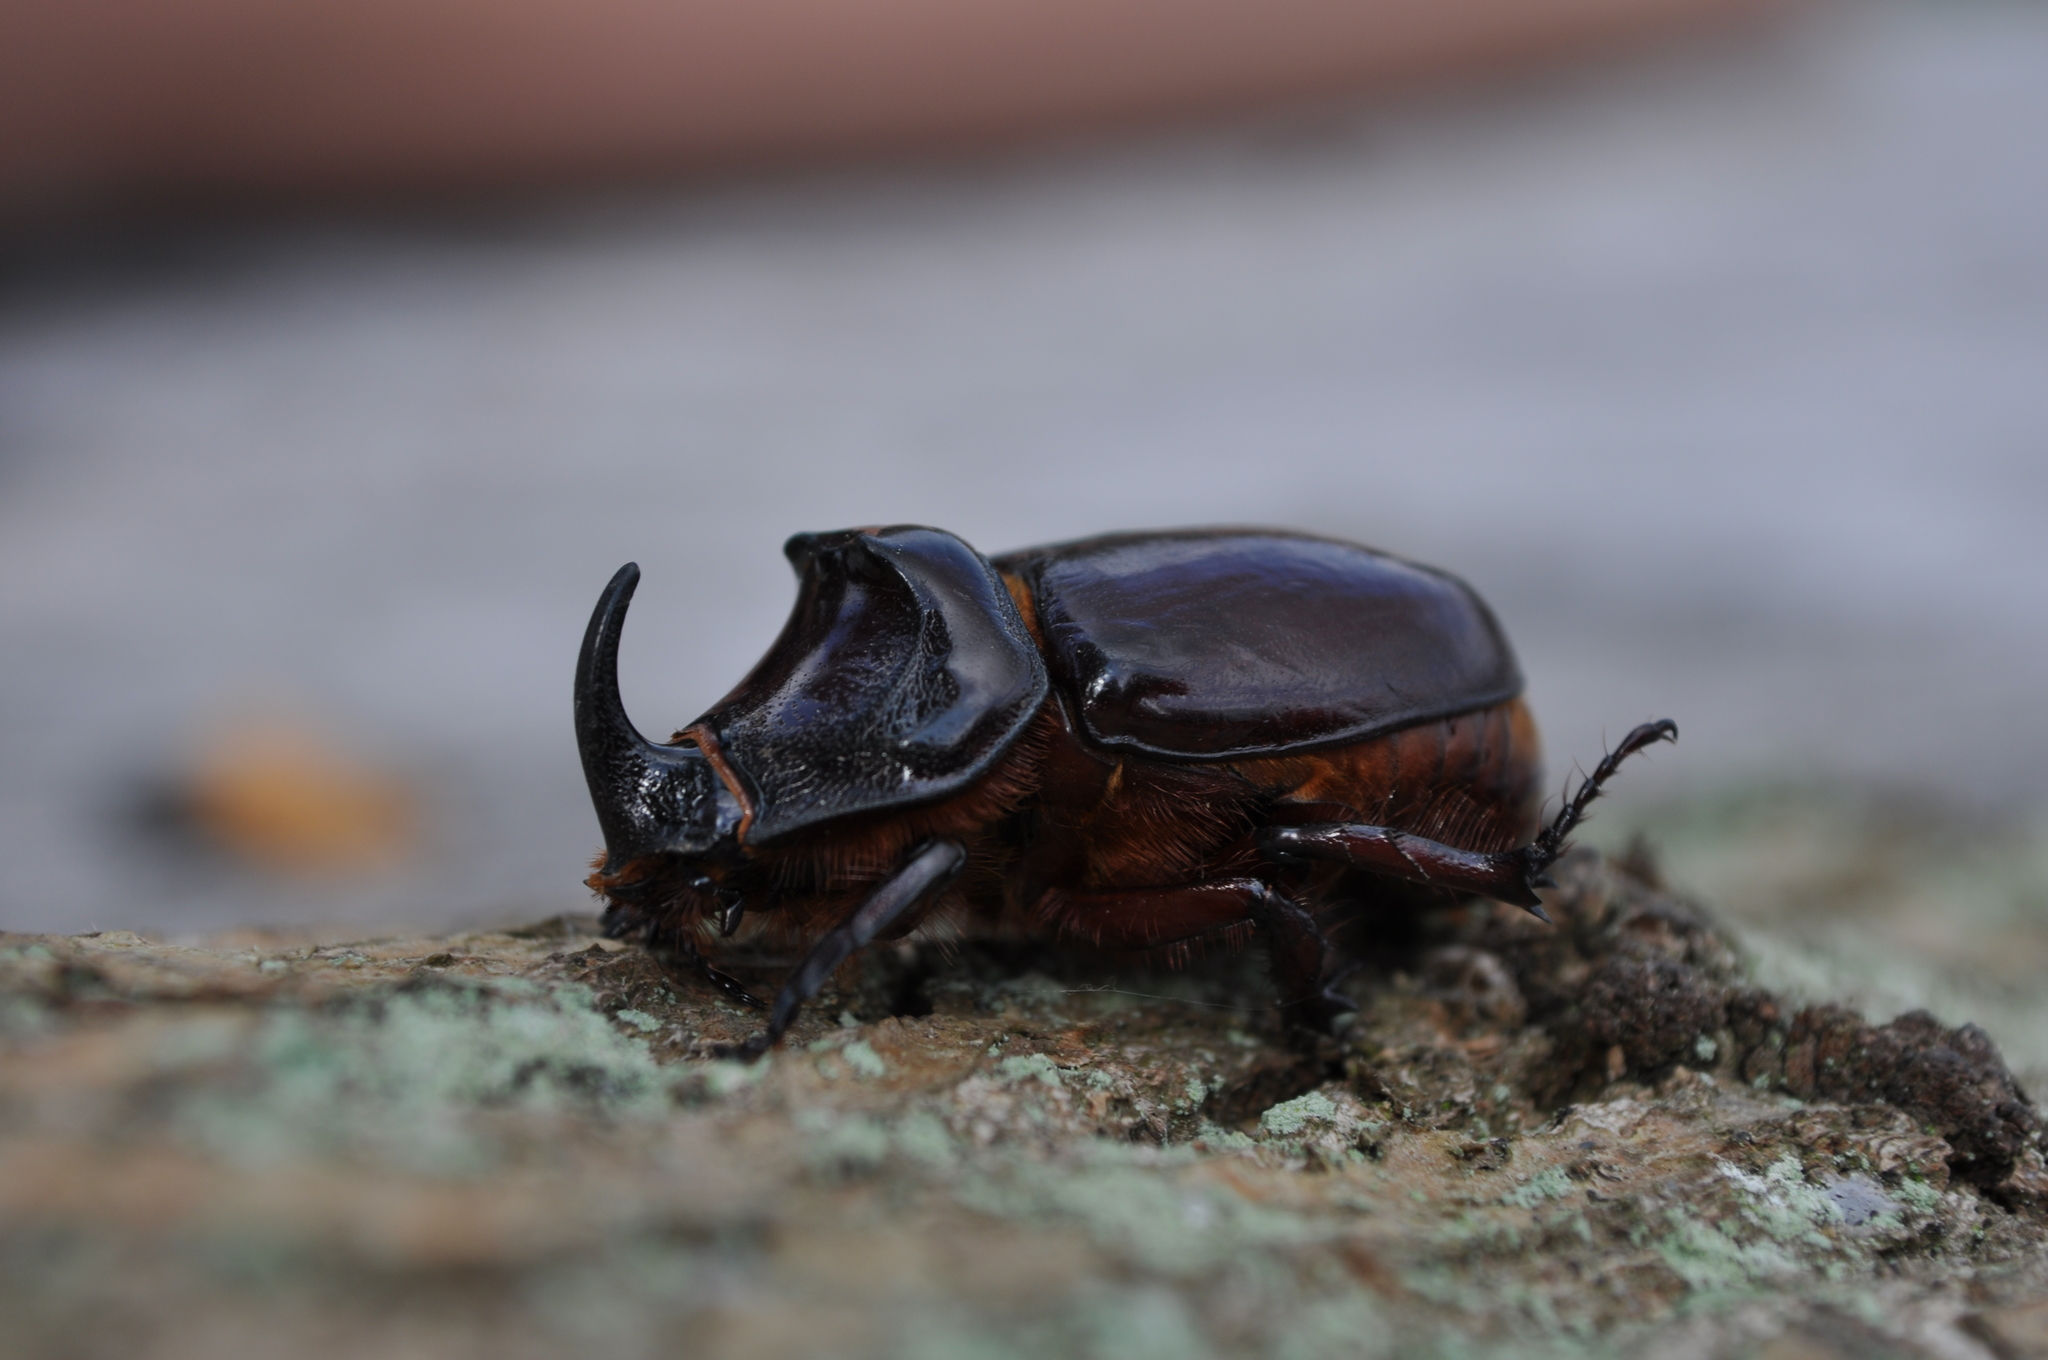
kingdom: Animalia
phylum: Arthropoda
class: Insecta
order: Coleoptera
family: Scarabaeidae
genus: Oryctes
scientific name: Oryctes nasicornis
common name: European rhinoceros beetle
